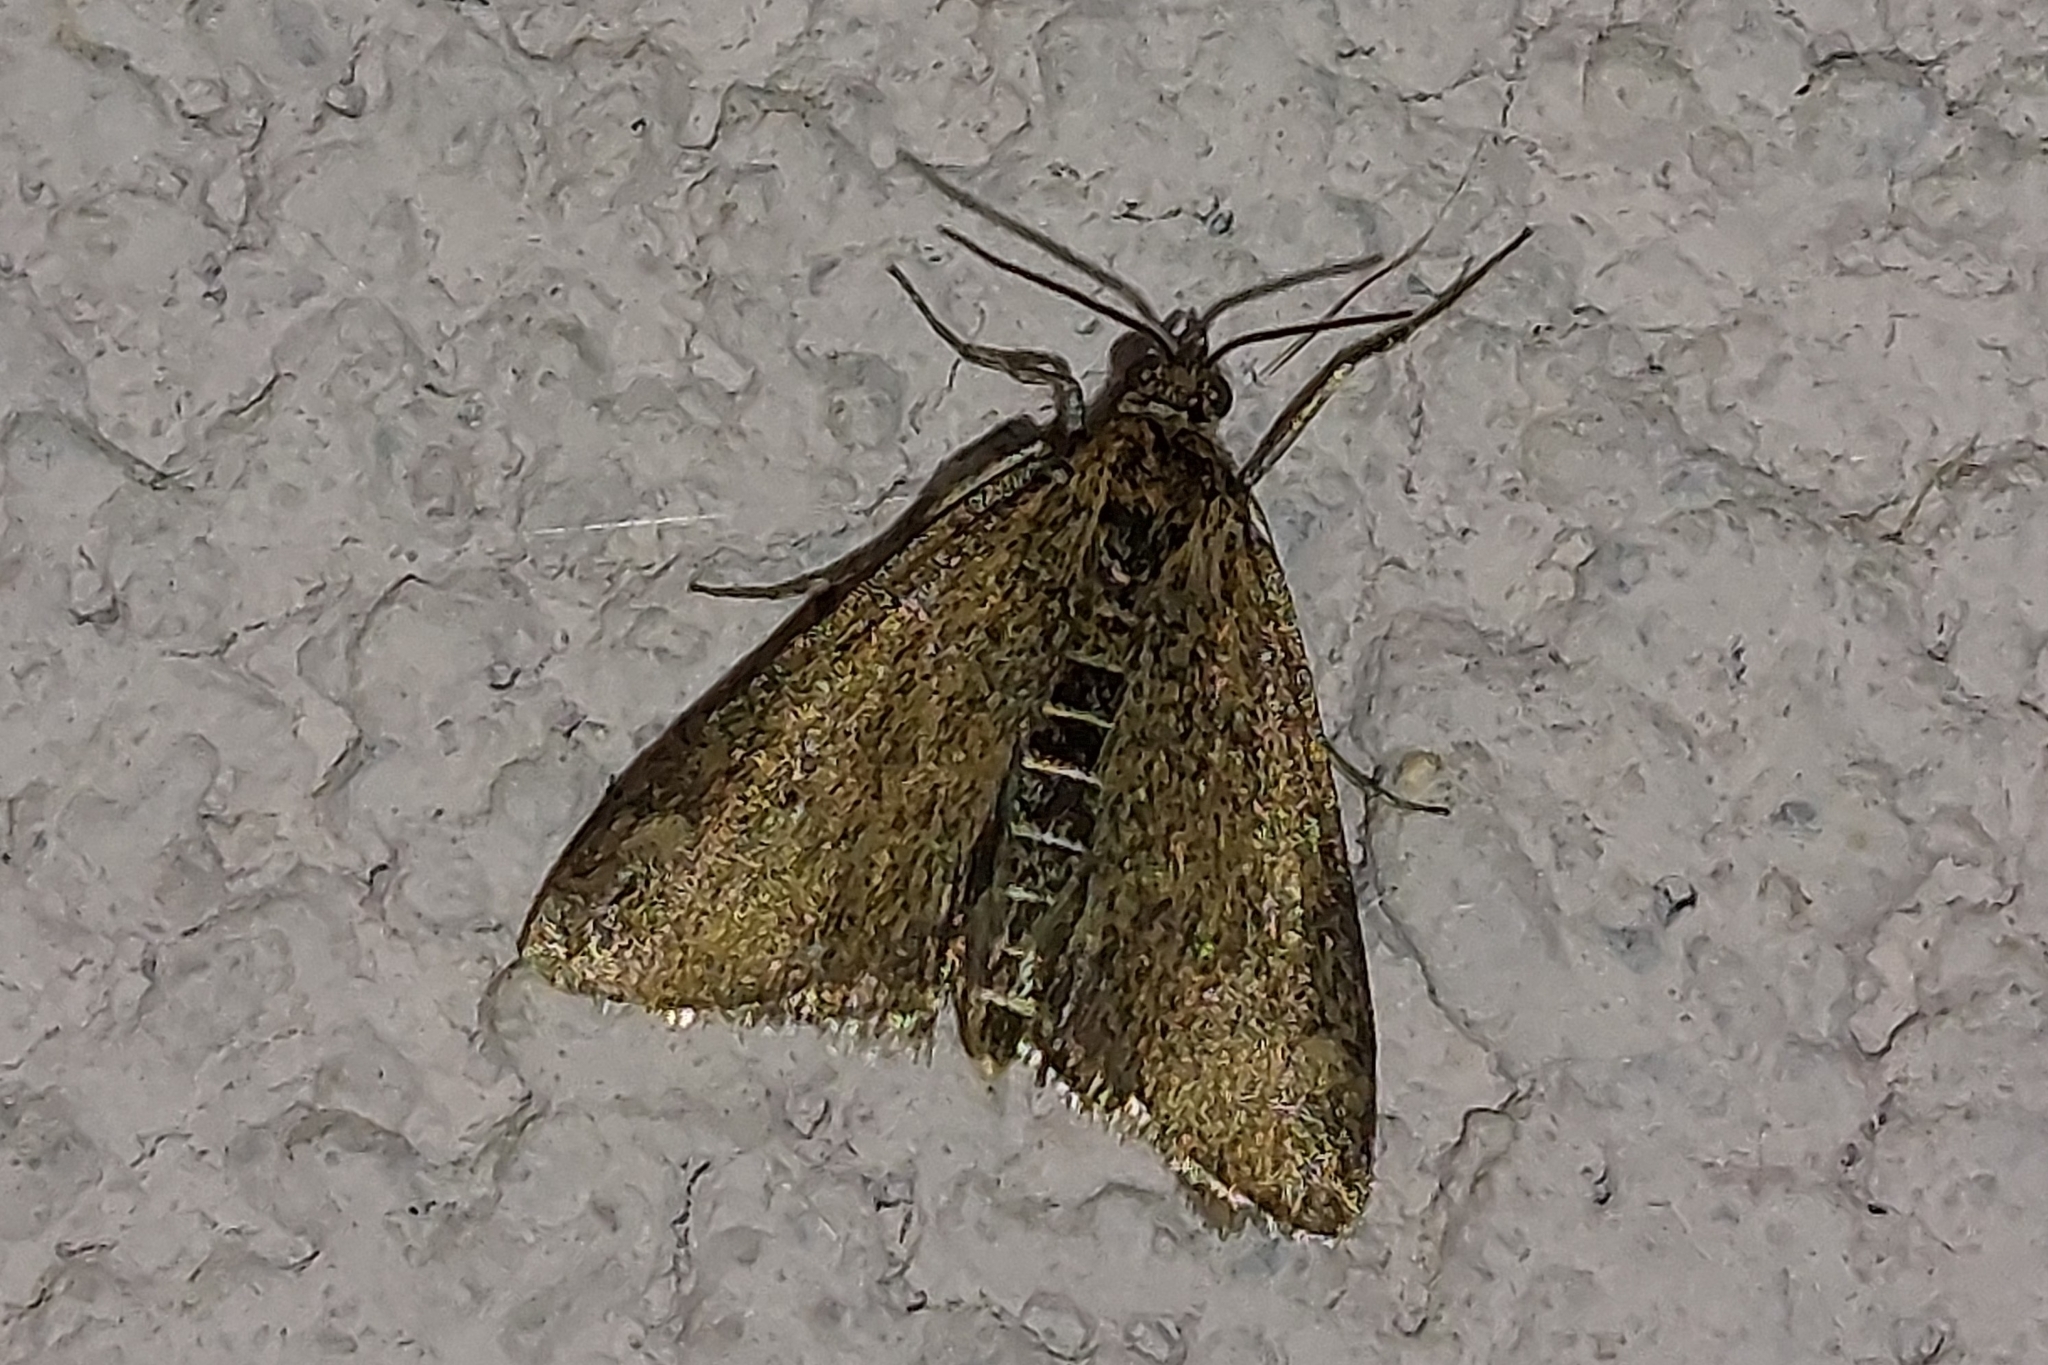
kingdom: Animalia
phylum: Arthropoda
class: Insecta
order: Lepidoptera
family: Crambidae
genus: Pyrausta
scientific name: Pyrausta despicata
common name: Straw-barred pearl
